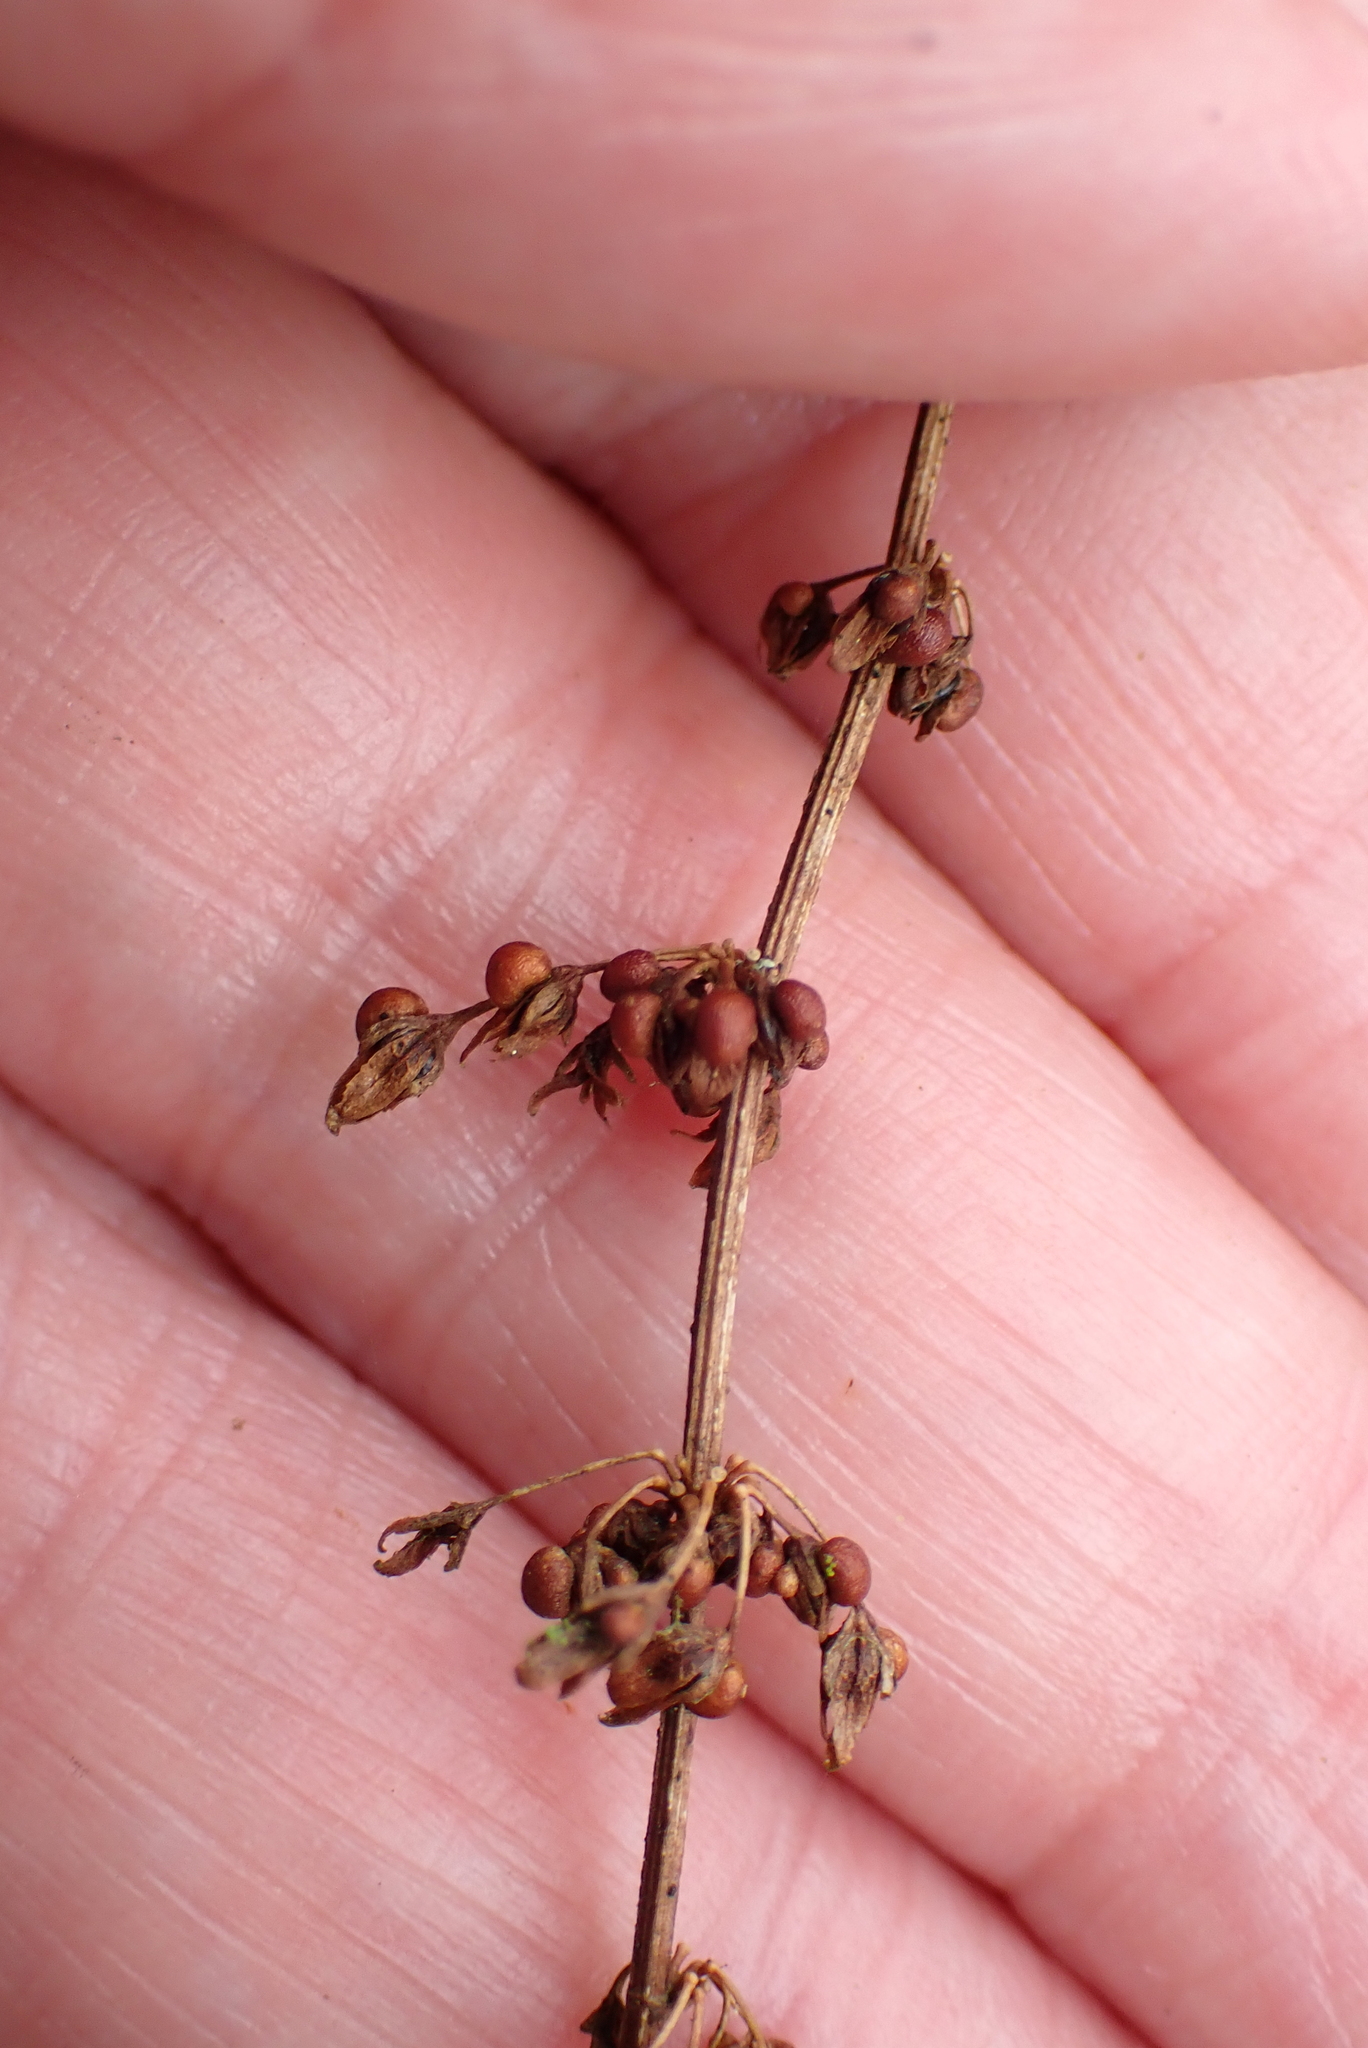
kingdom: Plantae
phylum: Tracheophyta
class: Magnoliopsida
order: Caryophyllales
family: Polygonaceae
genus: Rumex
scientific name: Rumex sanguineus
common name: Wood dock
